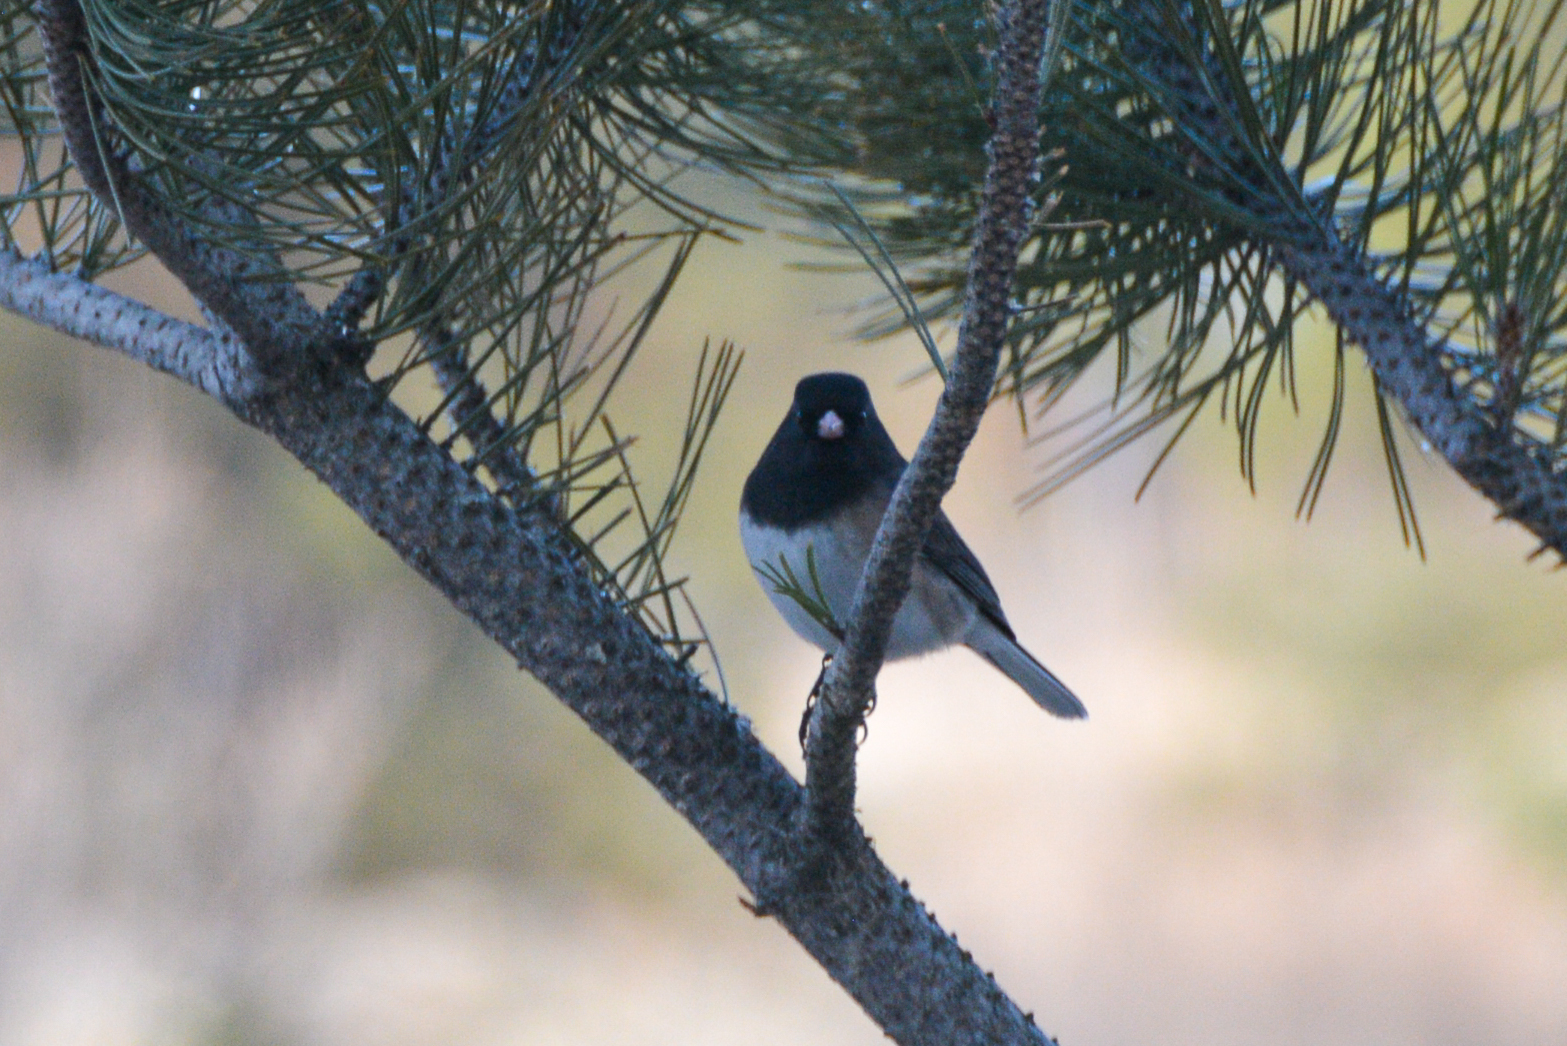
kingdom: Animalia
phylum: Chordata
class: Aves
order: Passeriformes
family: Passerellidae
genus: Junco
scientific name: Junco hyemalis
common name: Dark-eyed junco
